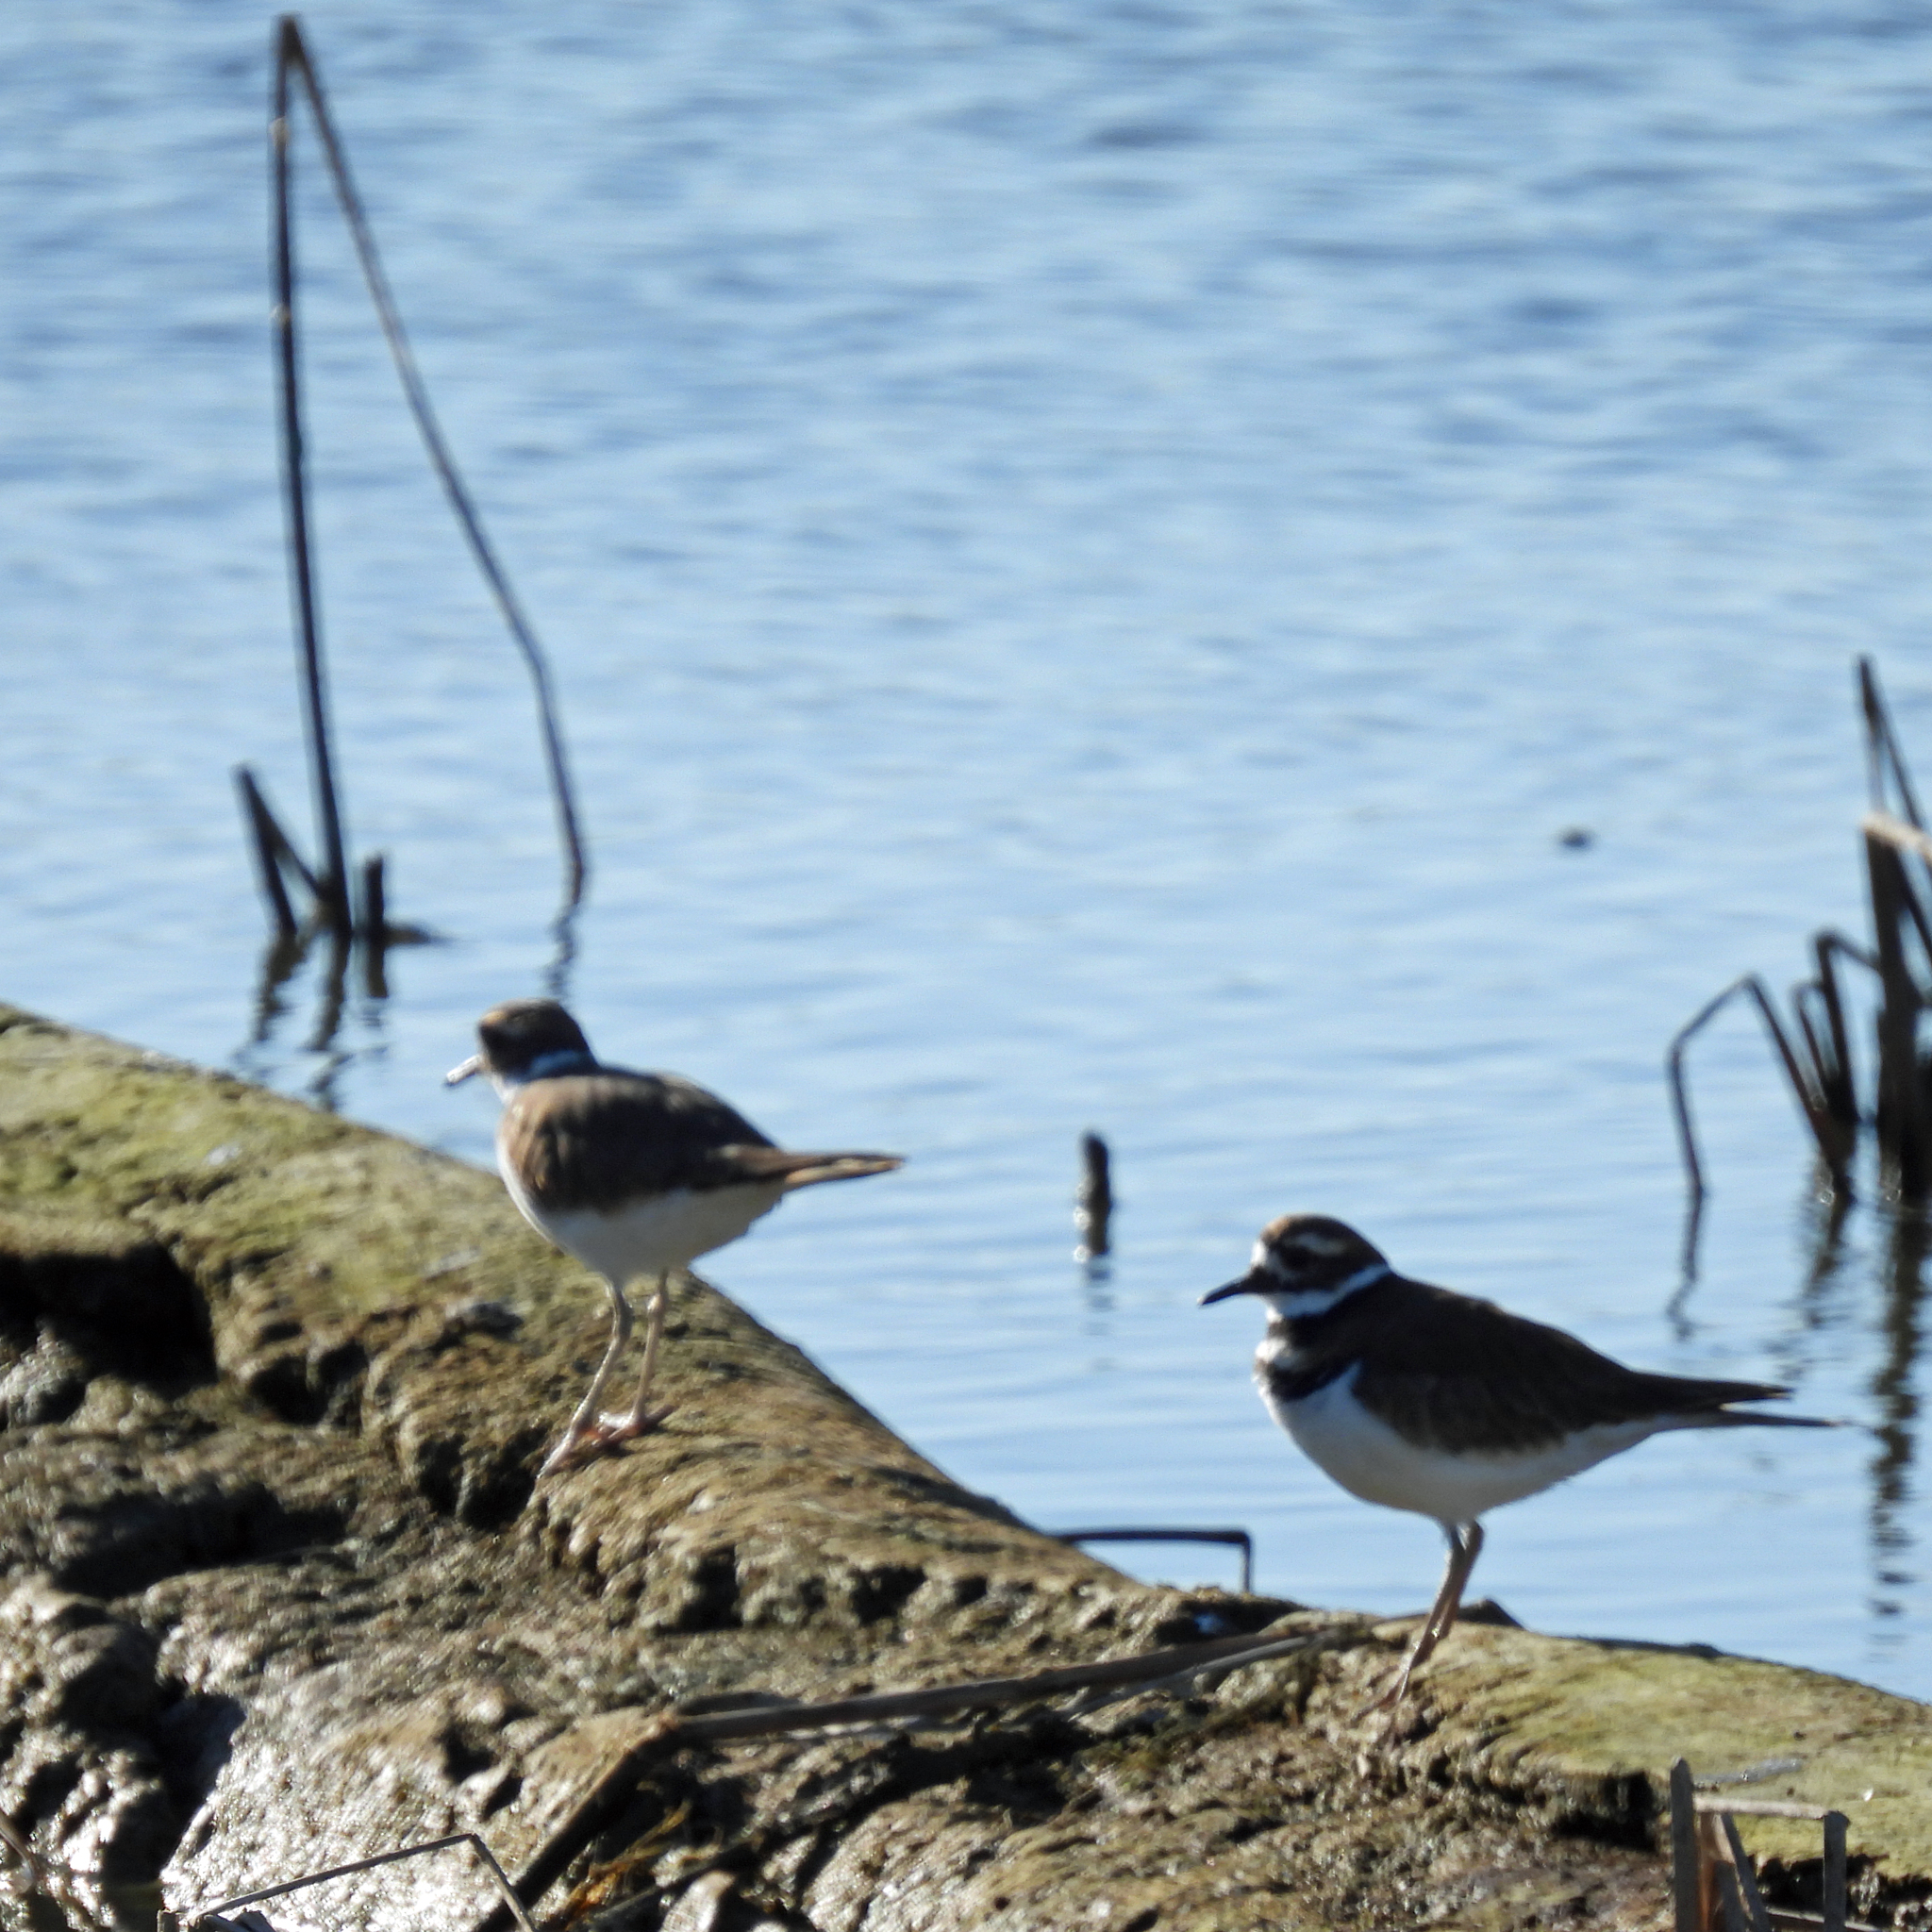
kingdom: Animalia
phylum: Chordata
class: Aves
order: Charadriiformes
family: Charadriidae
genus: Charadrius
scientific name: Charadrius vociferus
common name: Killdeer
